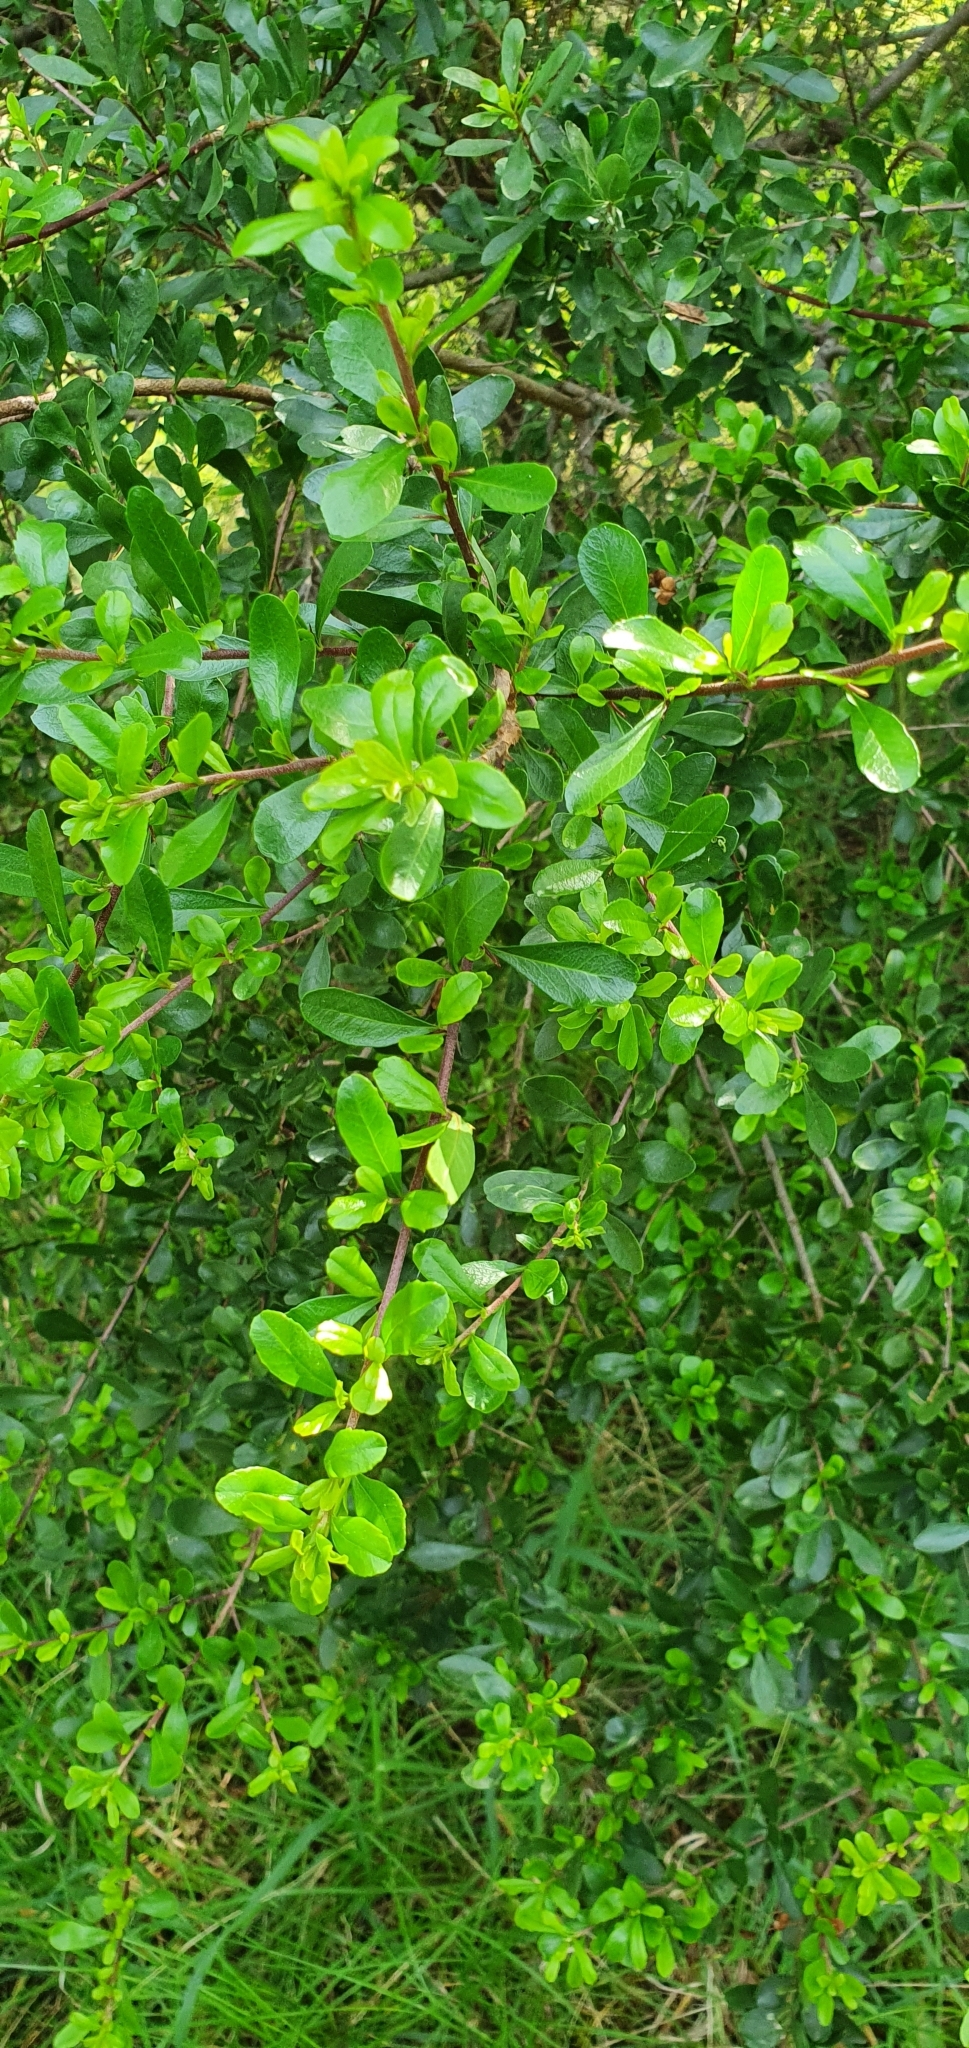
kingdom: Plantae
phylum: Tracheophyta
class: Magnoliopsida
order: Sapindales
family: Sapindaceae
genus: Dodonaea
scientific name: Dodonaea viscosa
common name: Hopbush
